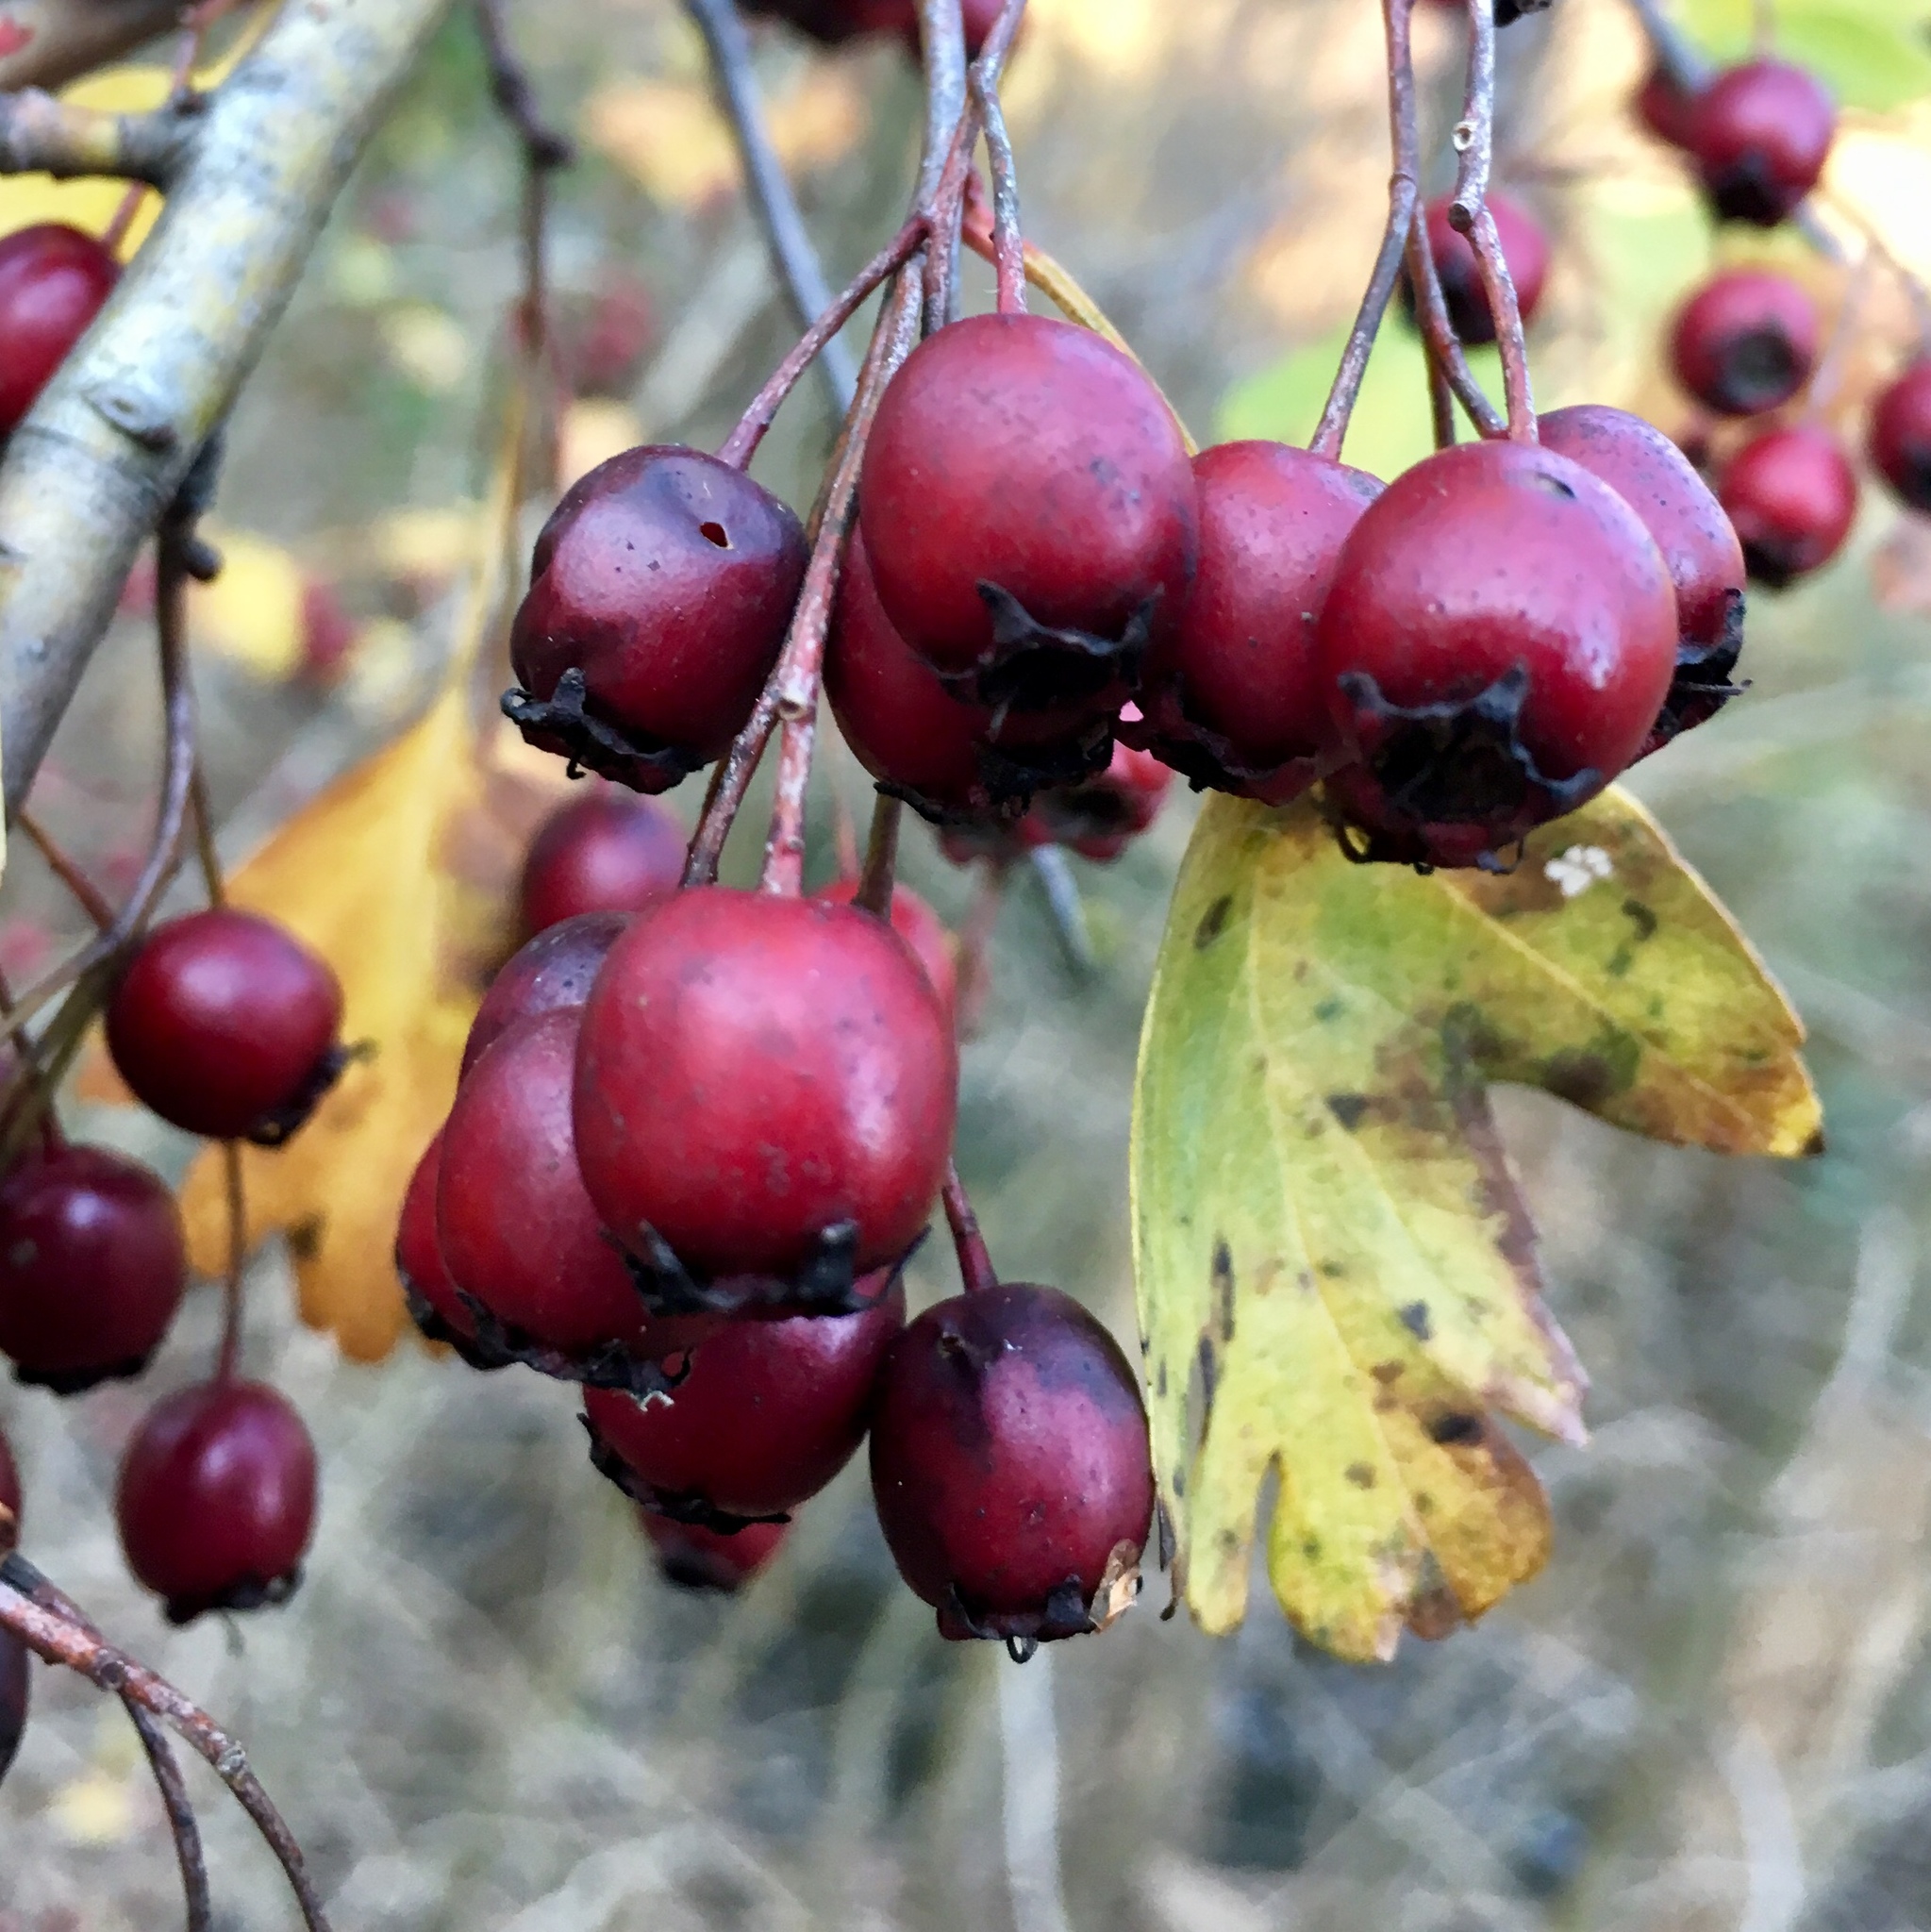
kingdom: Plantae
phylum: Tracheophyta
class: Magnoliopsida
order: Rosales
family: Rosaceae
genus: Crataegus
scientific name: Crataegus laevigata
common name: Midland hawthorn
